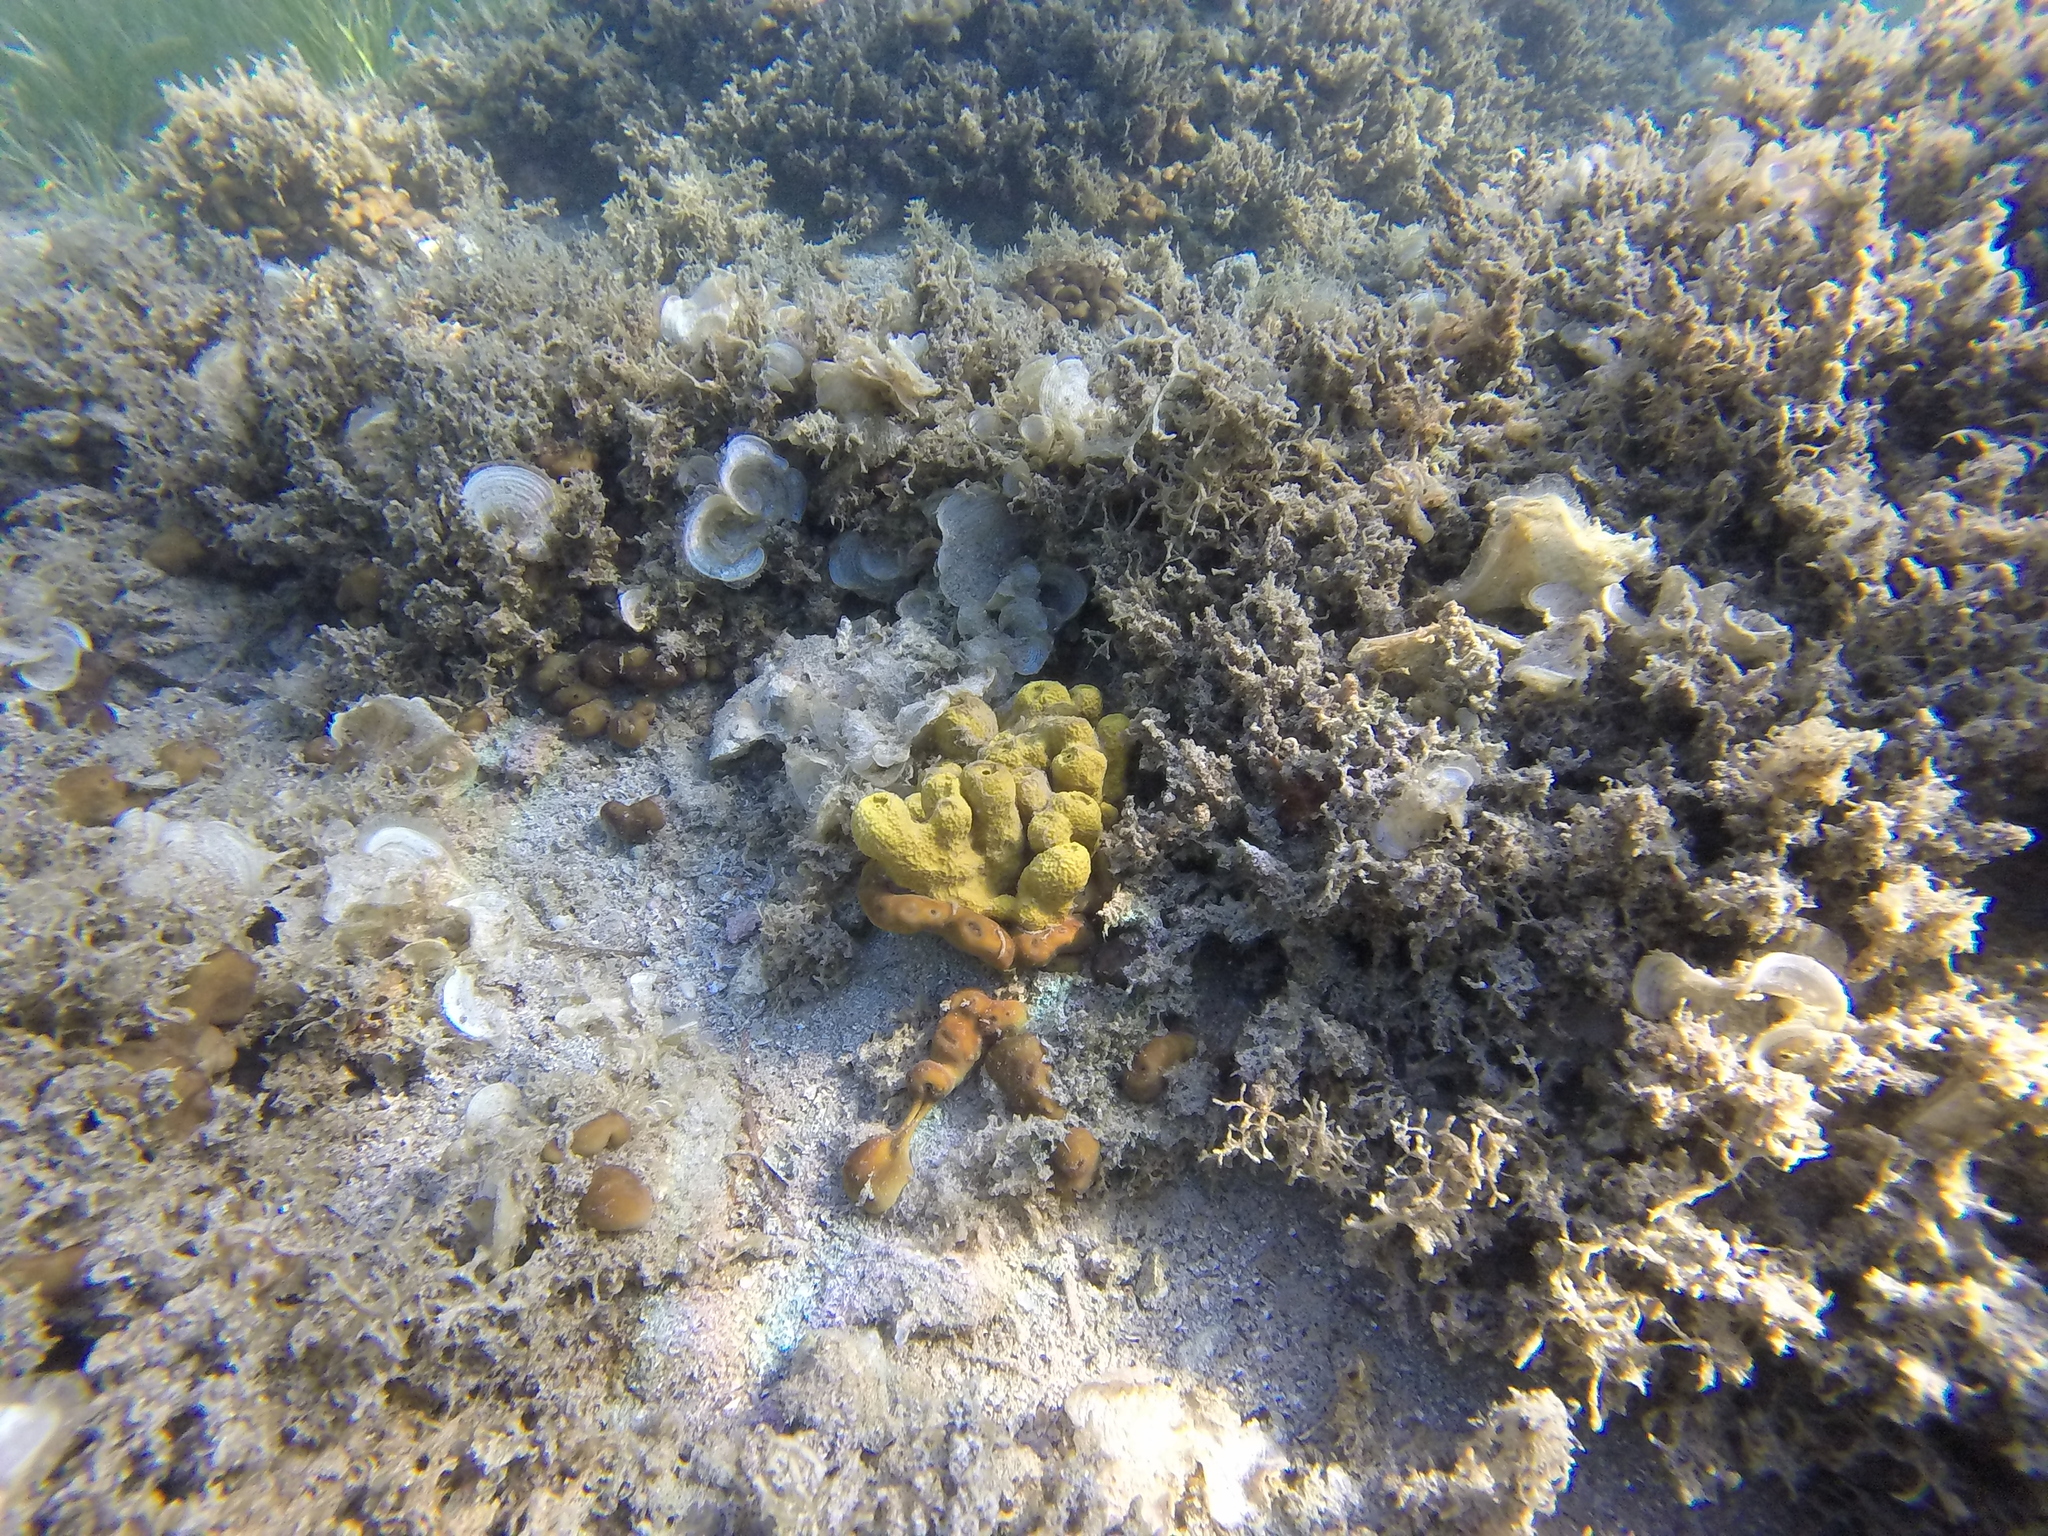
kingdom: Animalia
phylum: Porifera
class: Demospongiae
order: Verongiida
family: Aplysinidae
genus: Aplysina
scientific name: Aplysina aerophoba
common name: Aureate sponge
